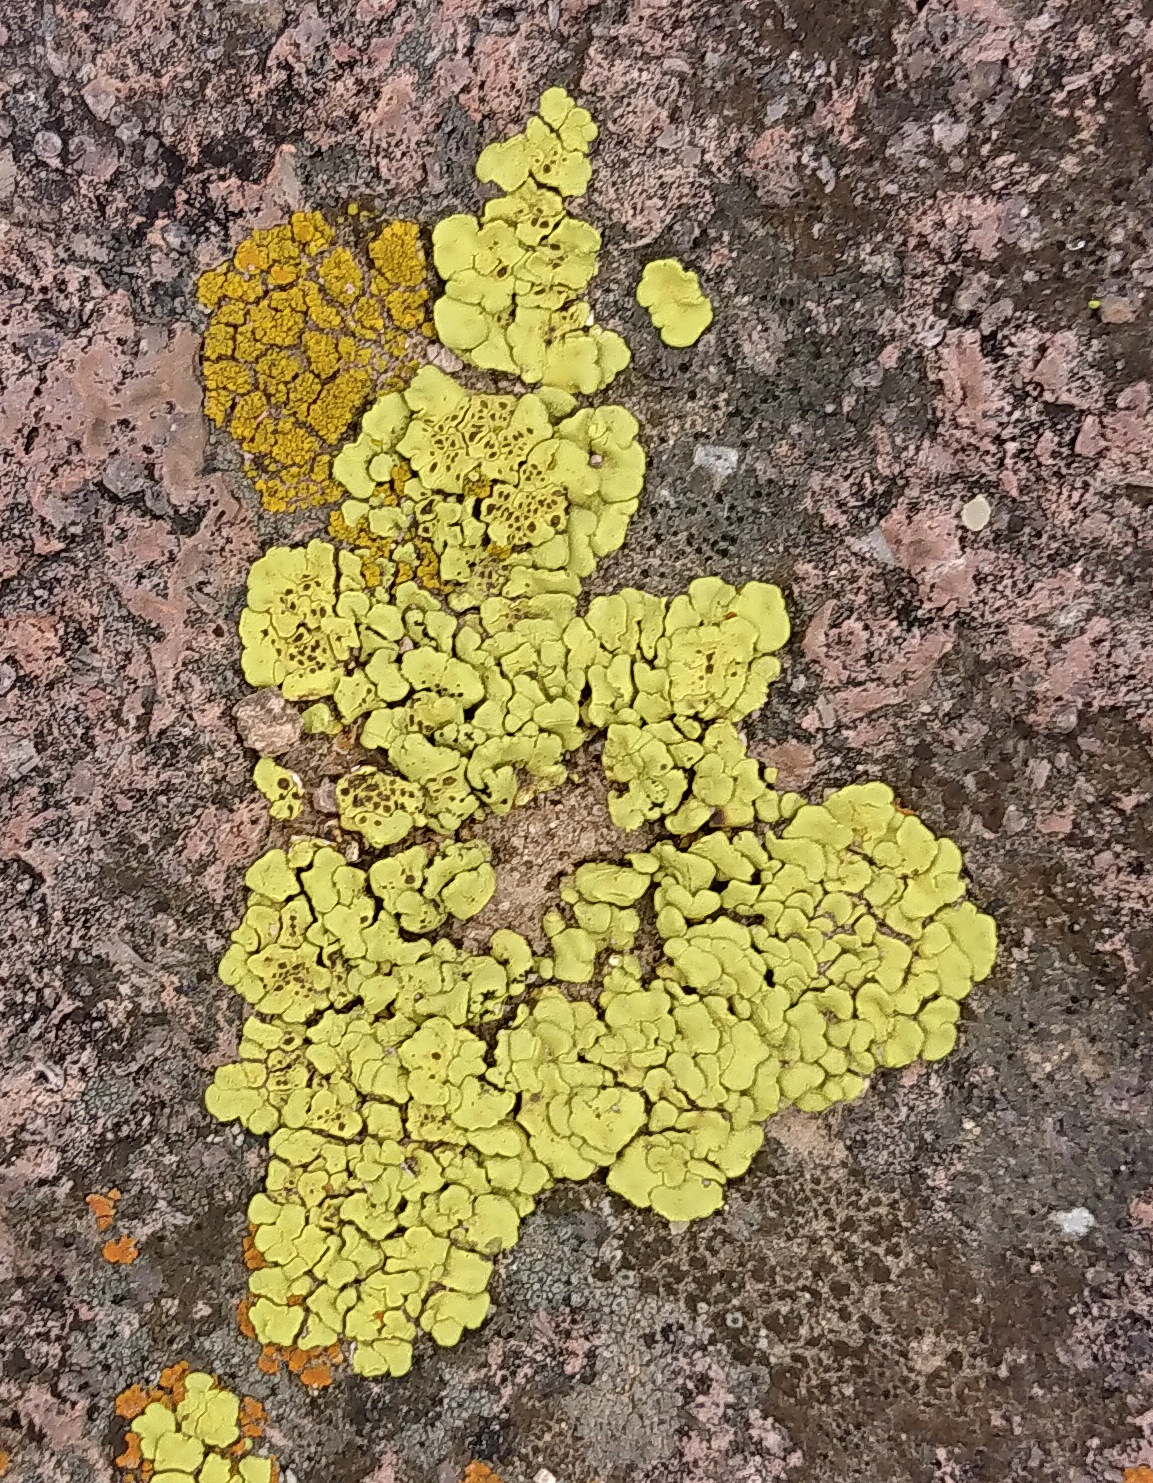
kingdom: Fungi
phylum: Ascomycota
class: Lecanoromycetes
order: Acarosporales
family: Acarosporaceae
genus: Acarospora
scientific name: Acarospora socialis
